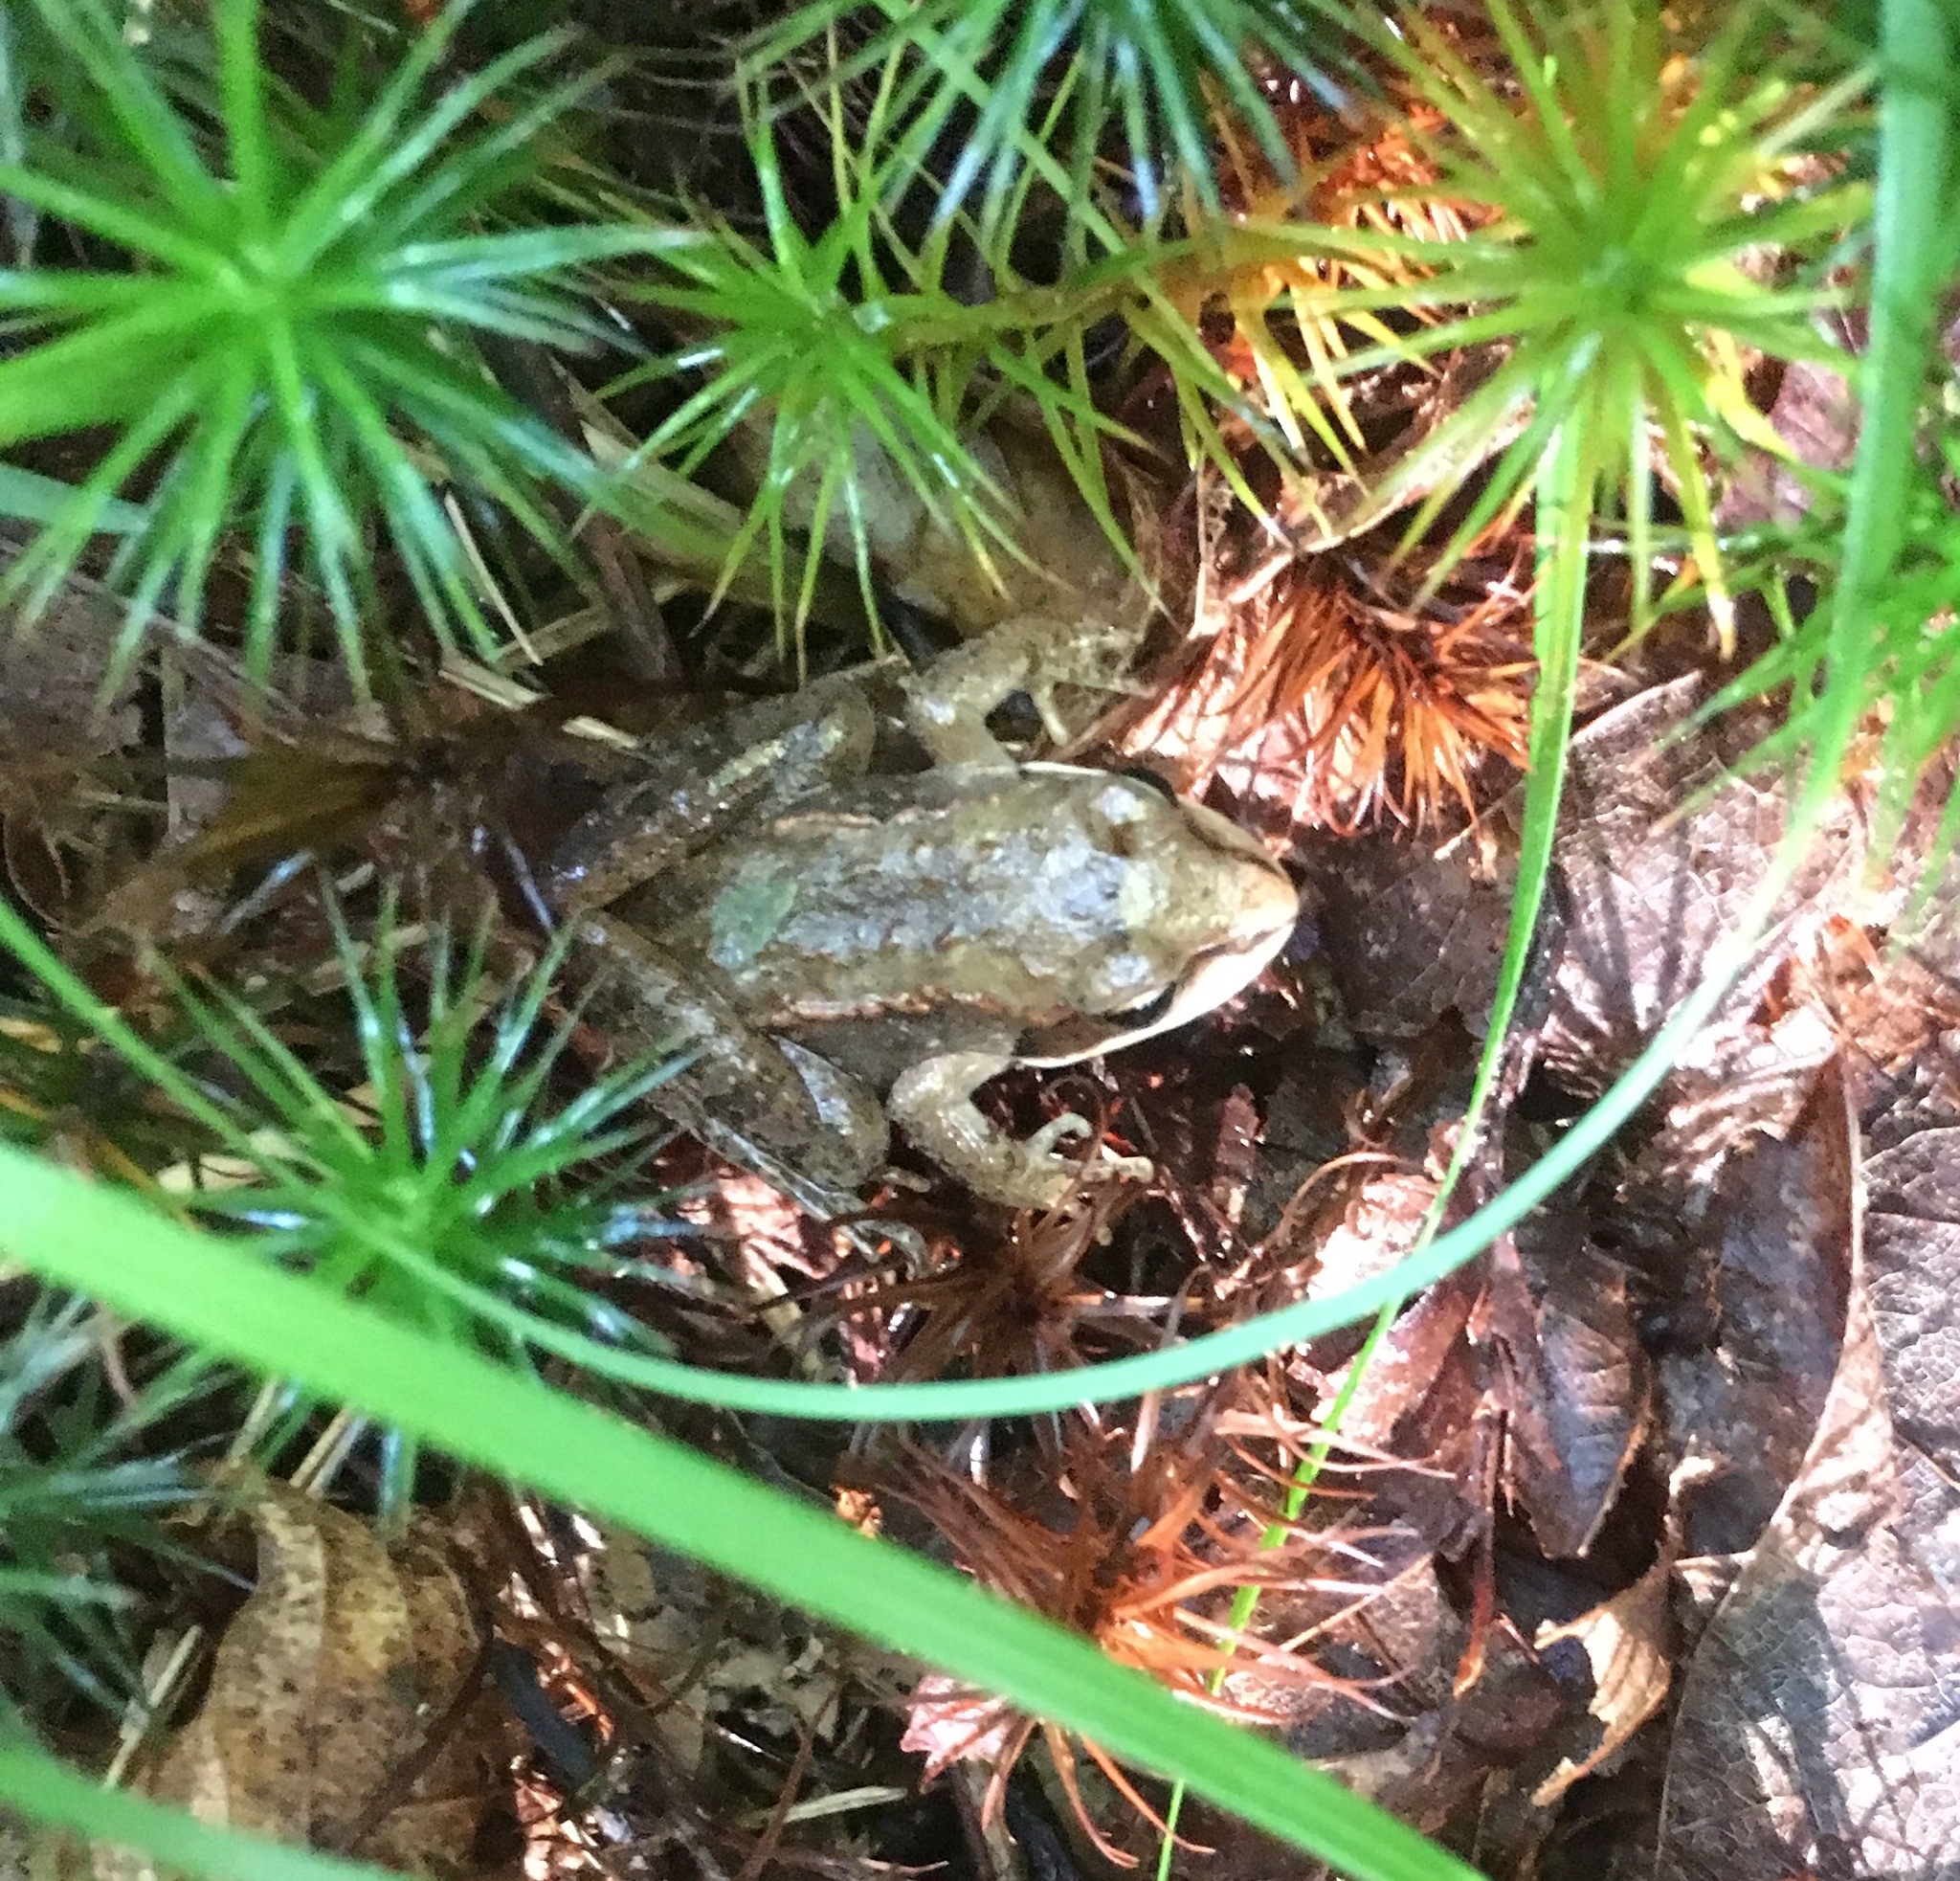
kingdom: Animalia
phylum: Chordata
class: Amphibia
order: Anura
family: Ranidae
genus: Lithobates
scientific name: Lithobates sylvaticus
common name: Wood frog
